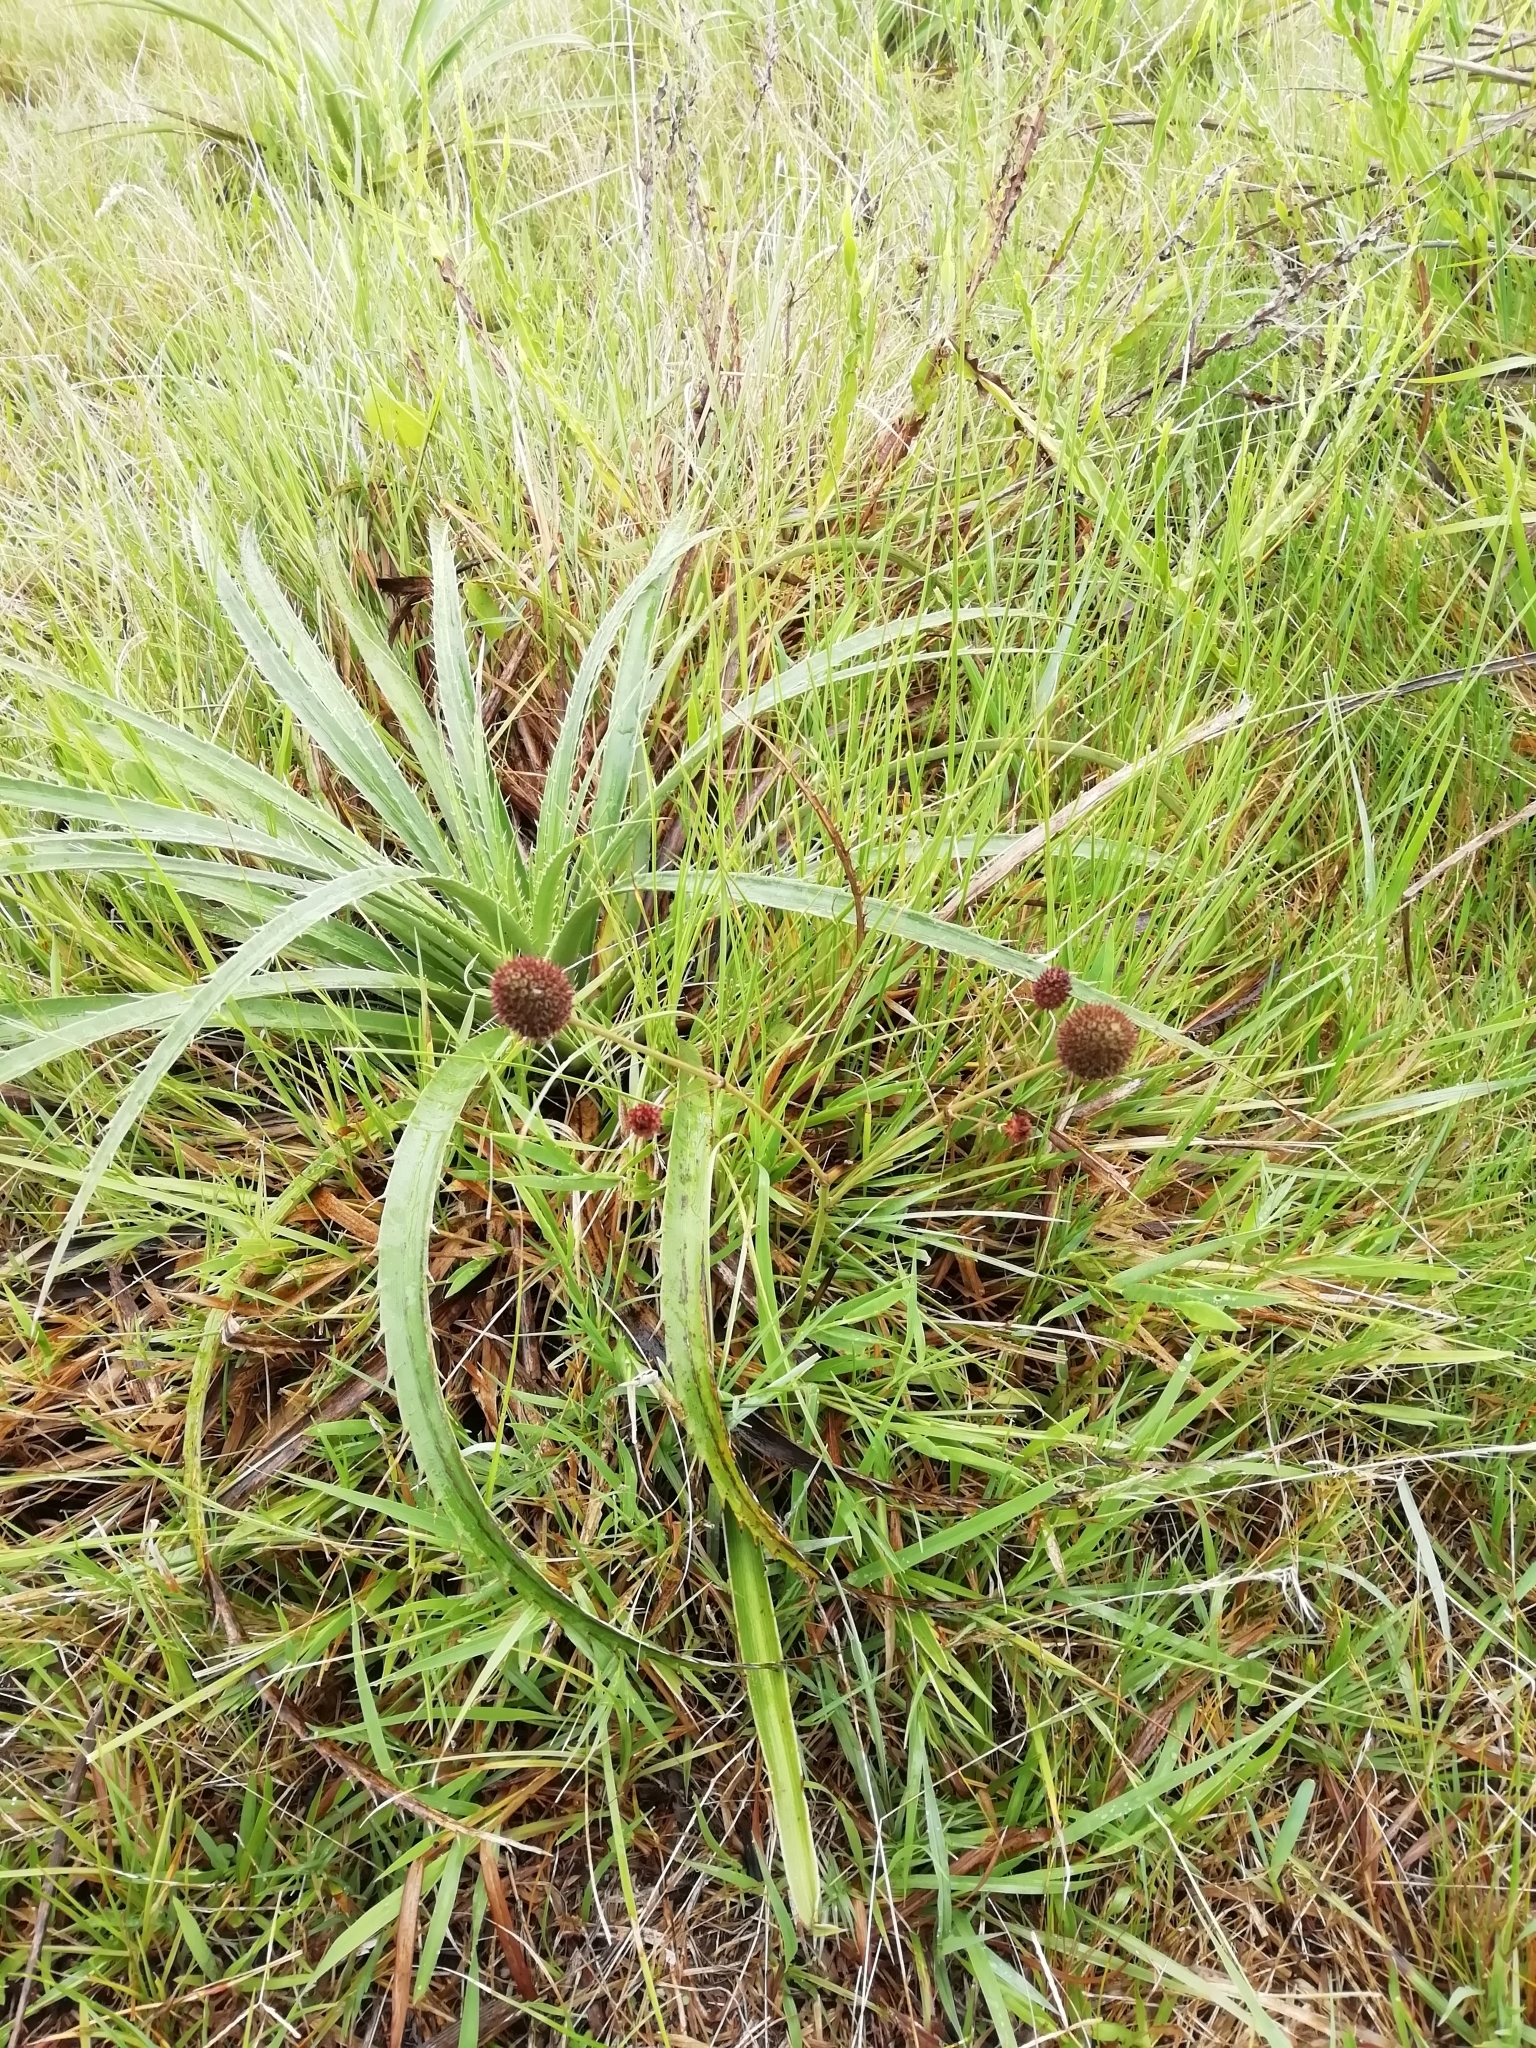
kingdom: Plantae
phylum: Tracheophyta
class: Magnoliopsida
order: Apiales
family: Apiaceae
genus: Eryngium
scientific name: Eryngium sanguisorba
